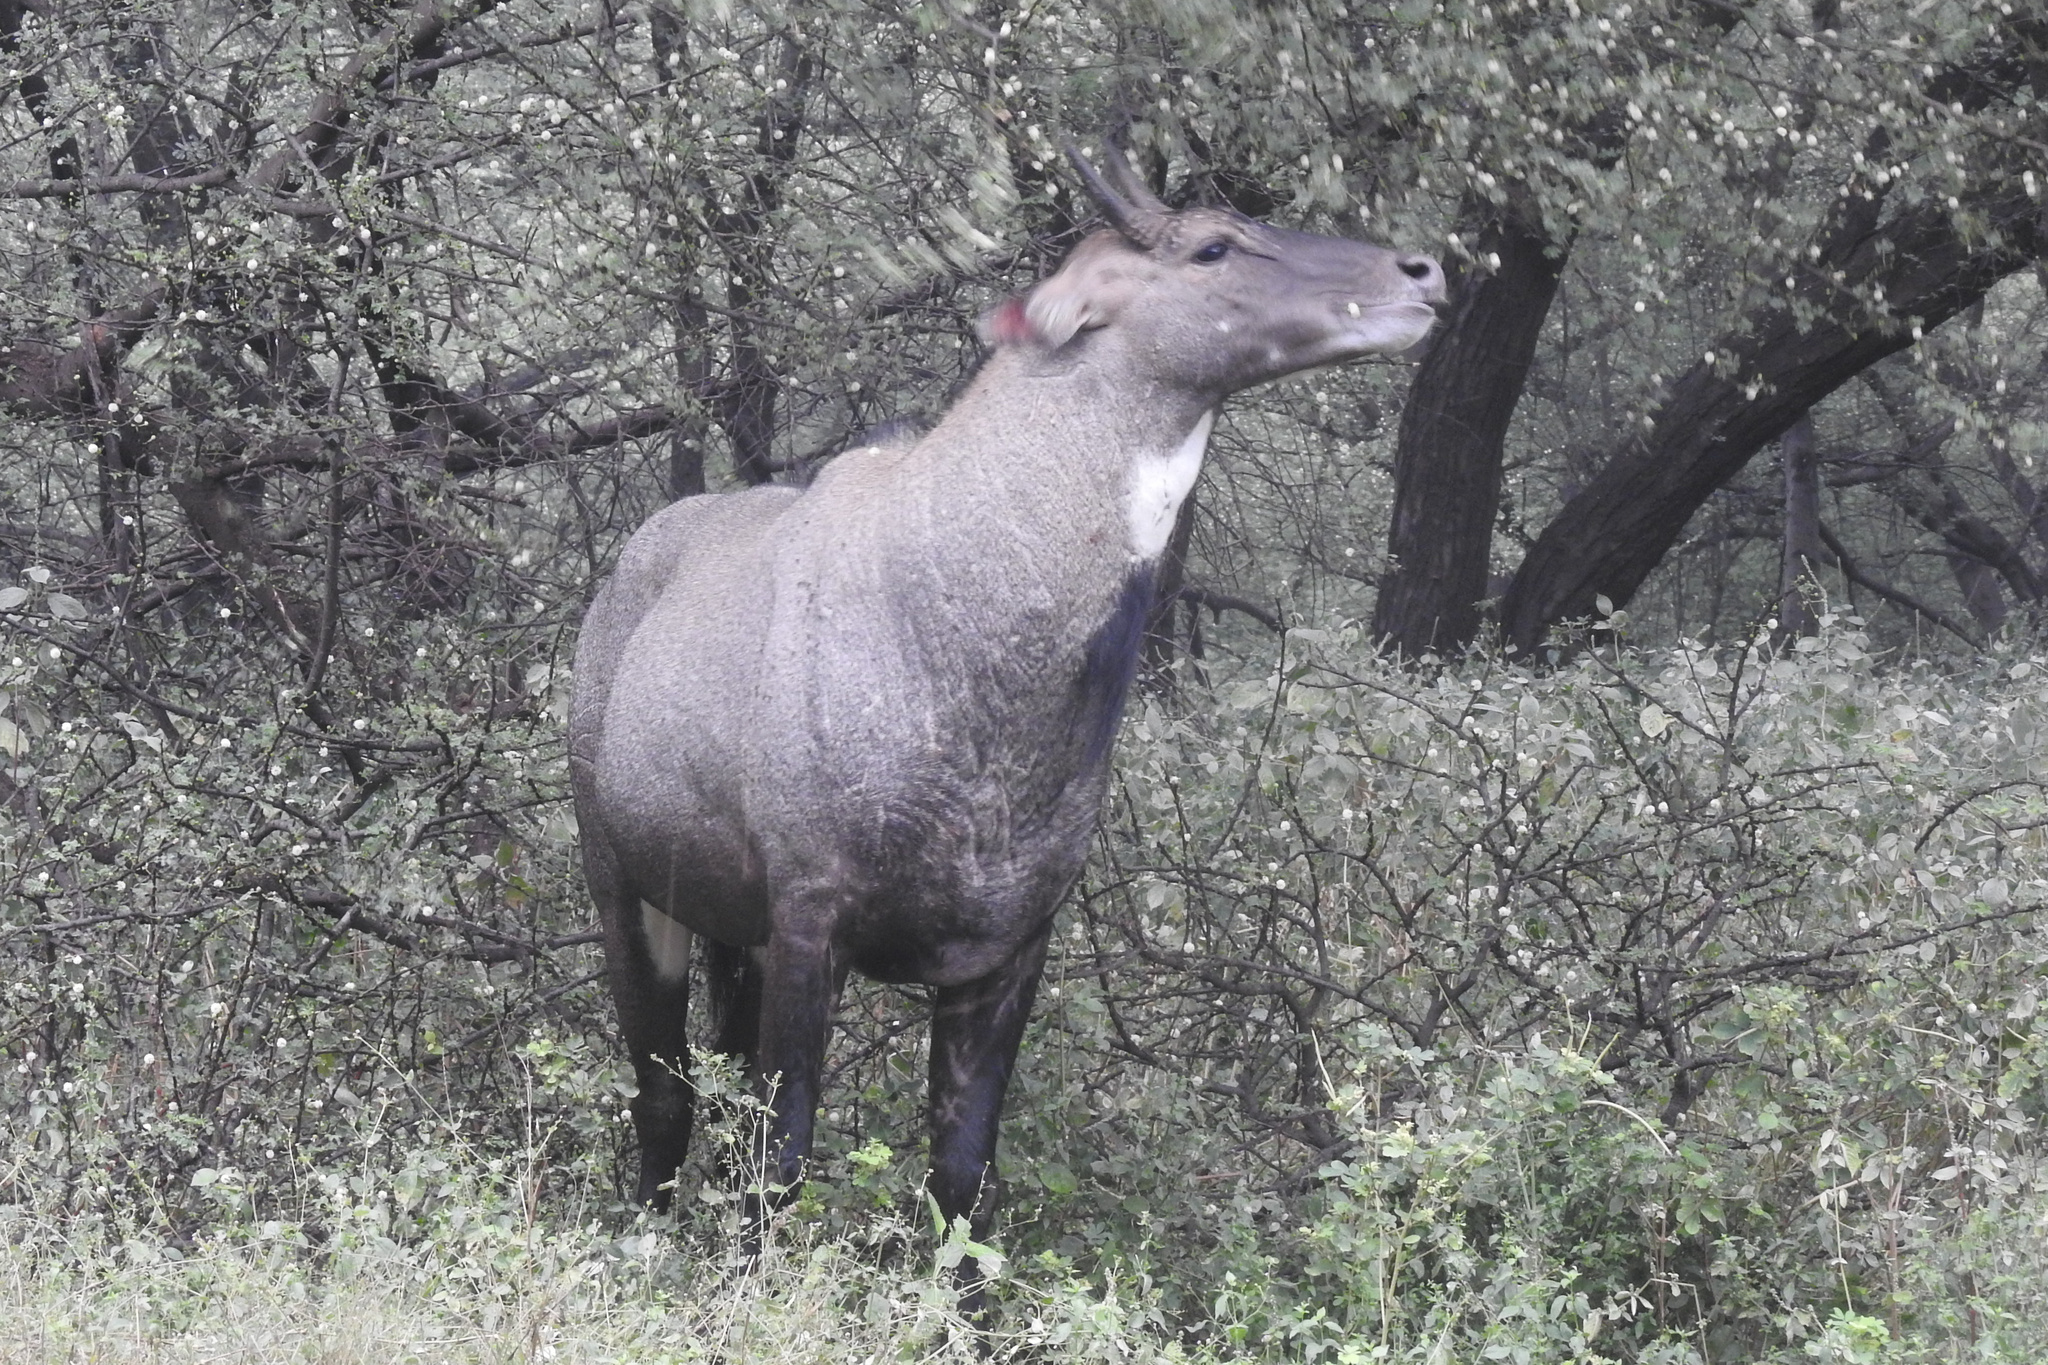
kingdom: Animalia
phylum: Chordata
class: Mammalia
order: Artiodactyla
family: Bovidae
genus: Boselaphus
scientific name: Boselaphus tragocamelus
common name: Nilgai
